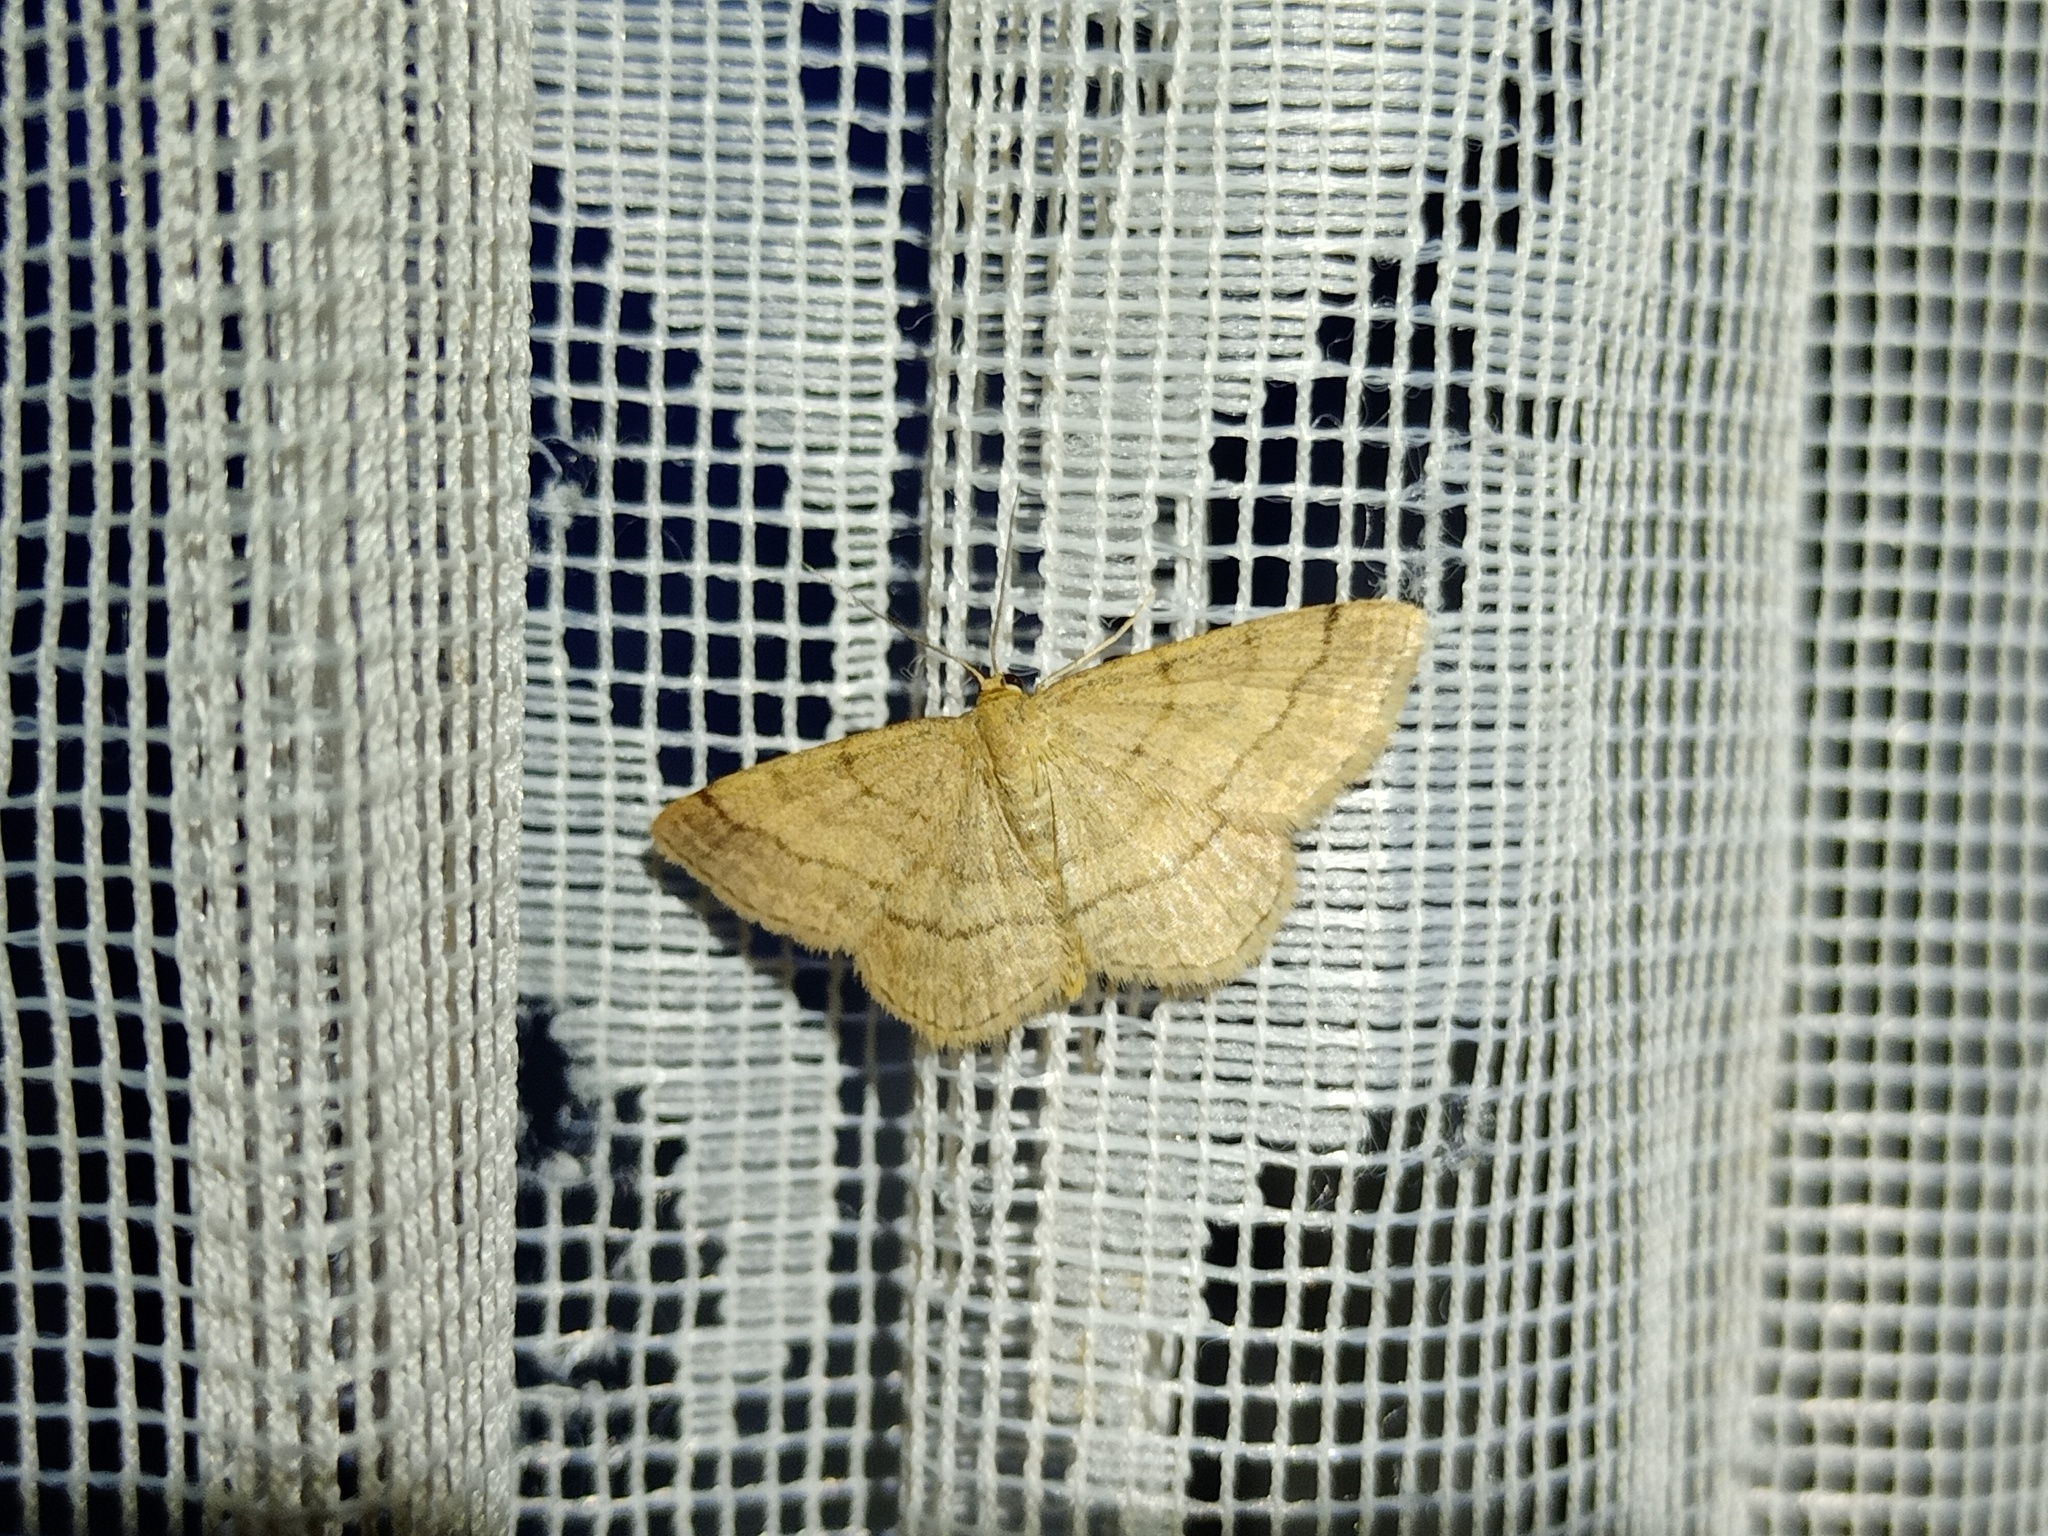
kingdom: Animalia
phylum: Arthropoda
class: Insecta
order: Lepidoptera
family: Geometridae
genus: Scopula
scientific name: Scopula rubiginata
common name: Tawny wave
